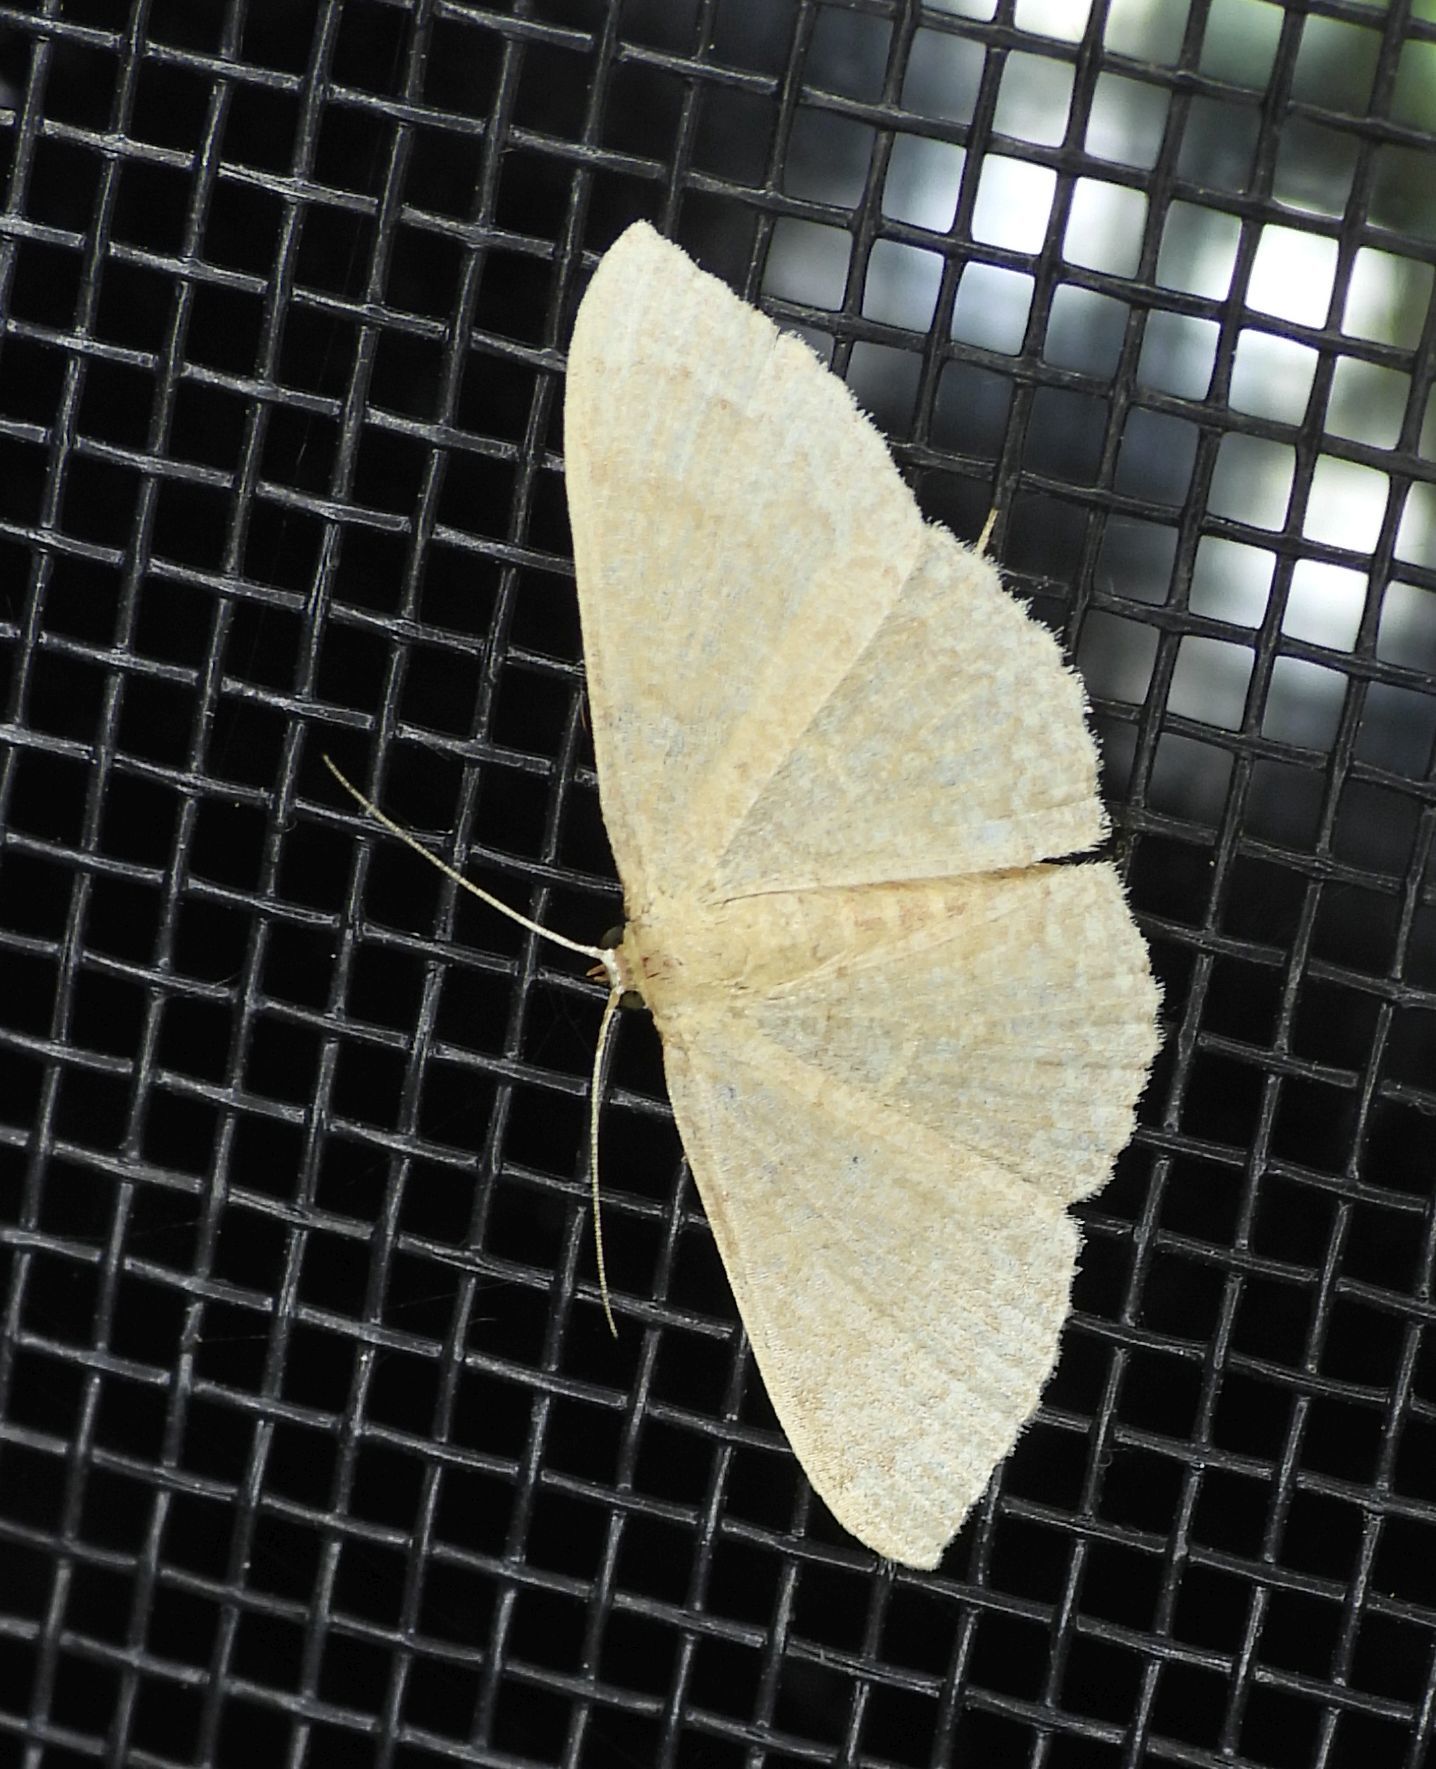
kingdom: Animalia
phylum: Arthropoda
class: Insecta
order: Lepidoptera
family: Geometridae
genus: Pleuroprucha
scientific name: Pleuroprucha insulsaria
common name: Common tan wave
